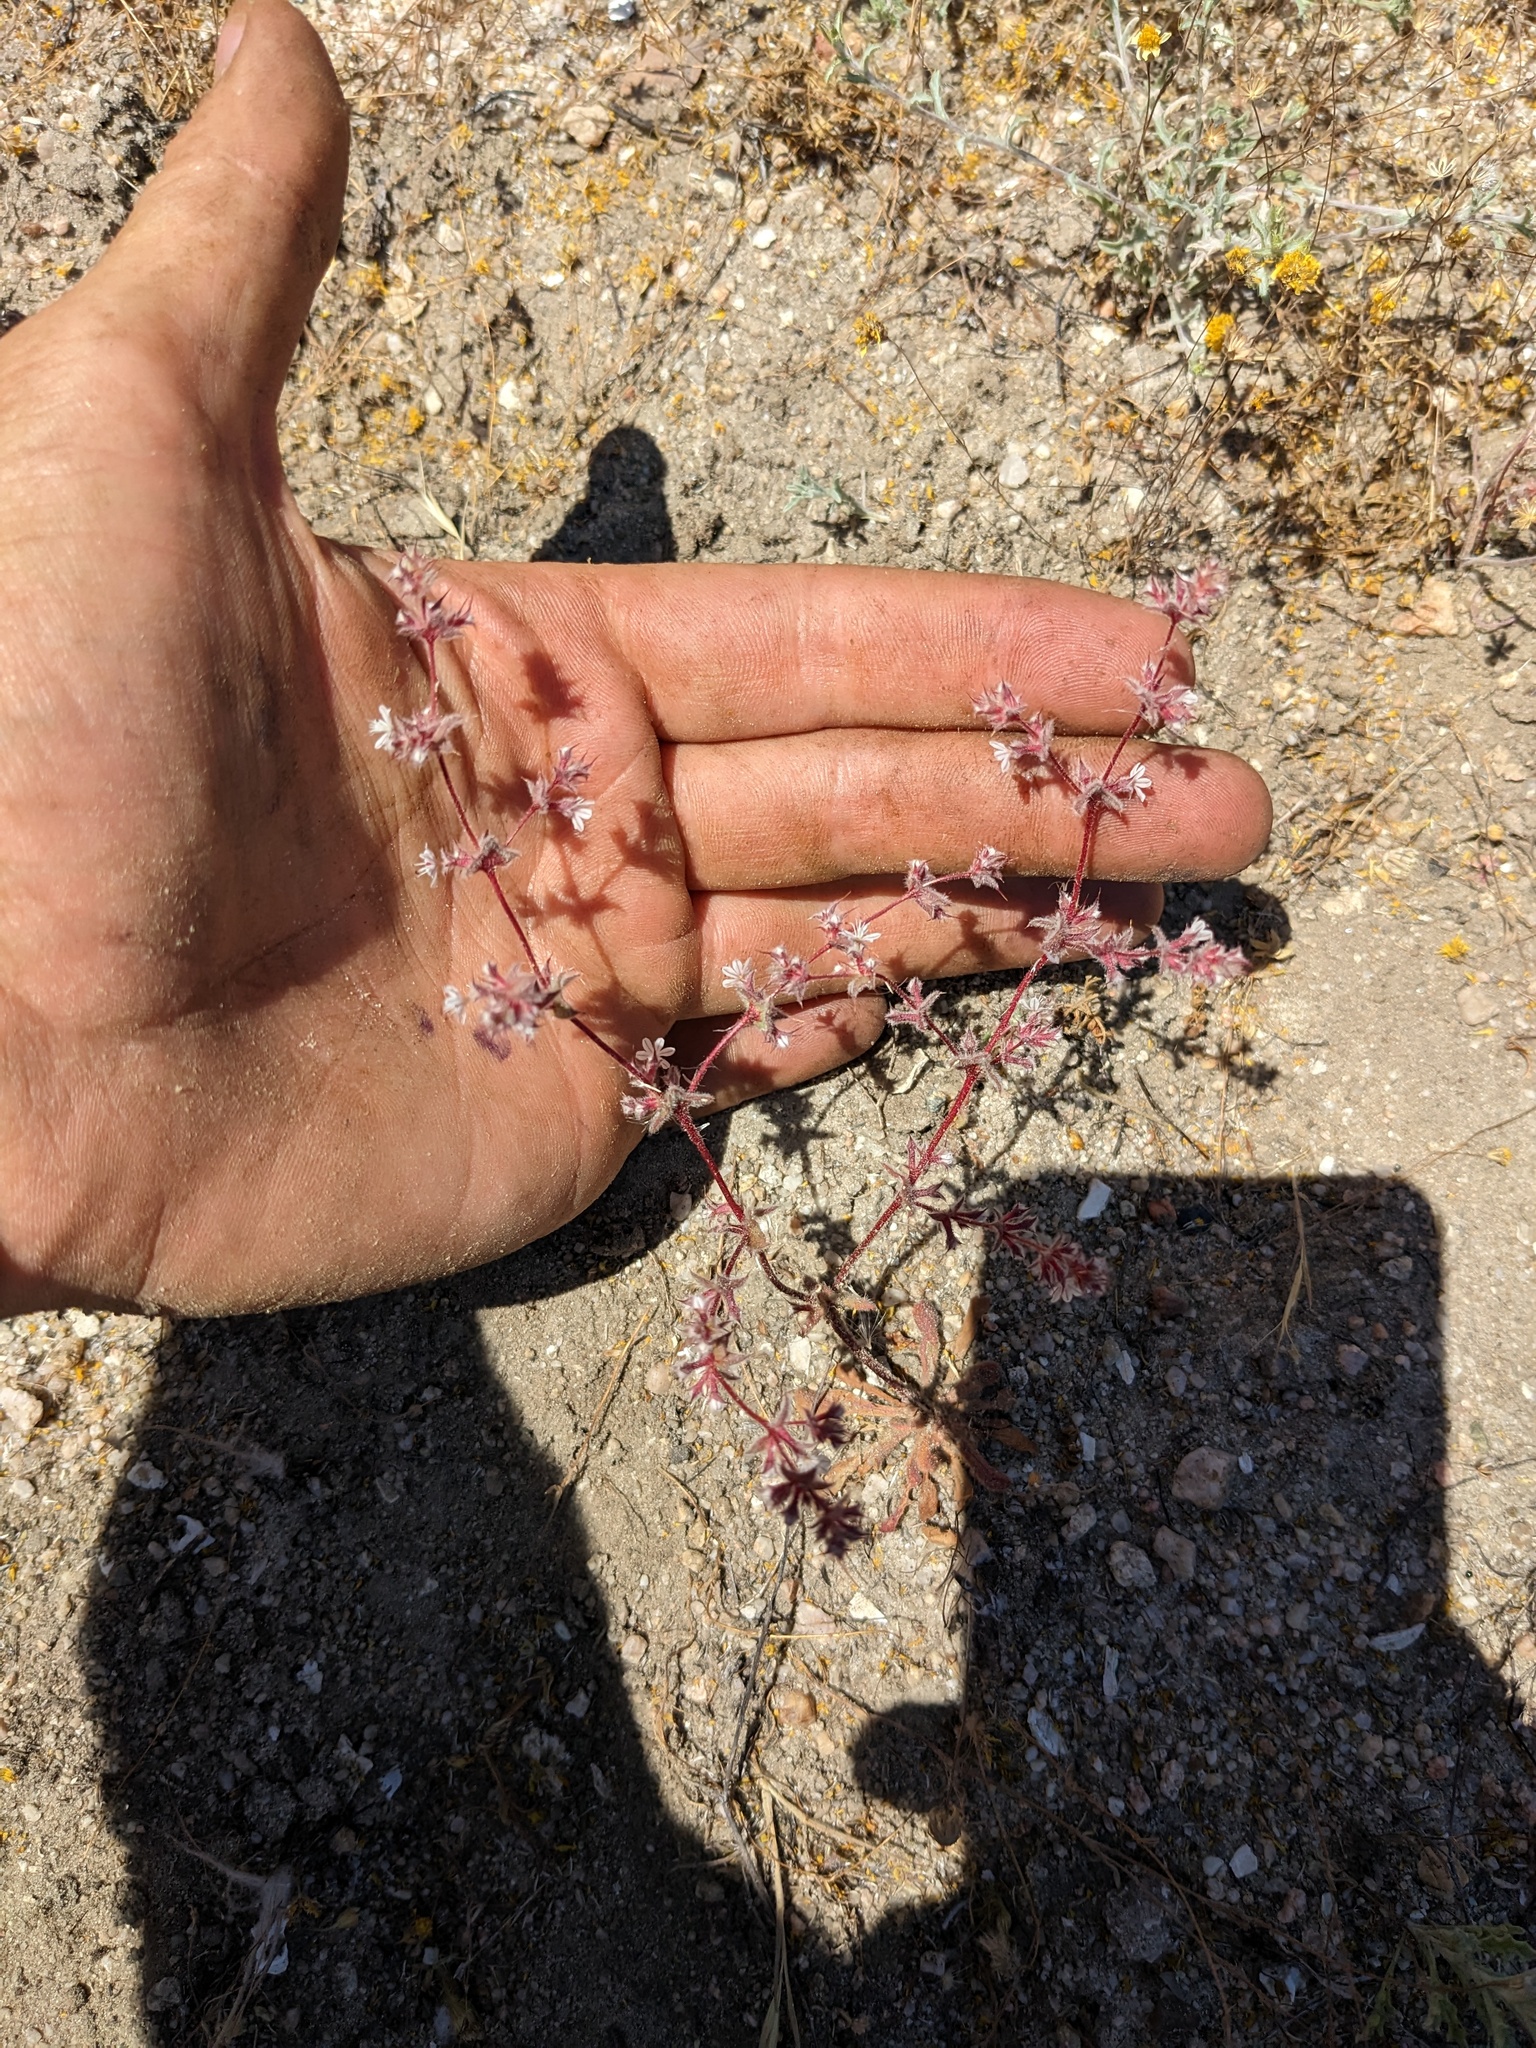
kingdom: Plantae
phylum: Tracheophyta
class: Magnoliopsida
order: Caryophyllales
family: Polygonaceae
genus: Mucronea
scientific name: Mucronea californica
